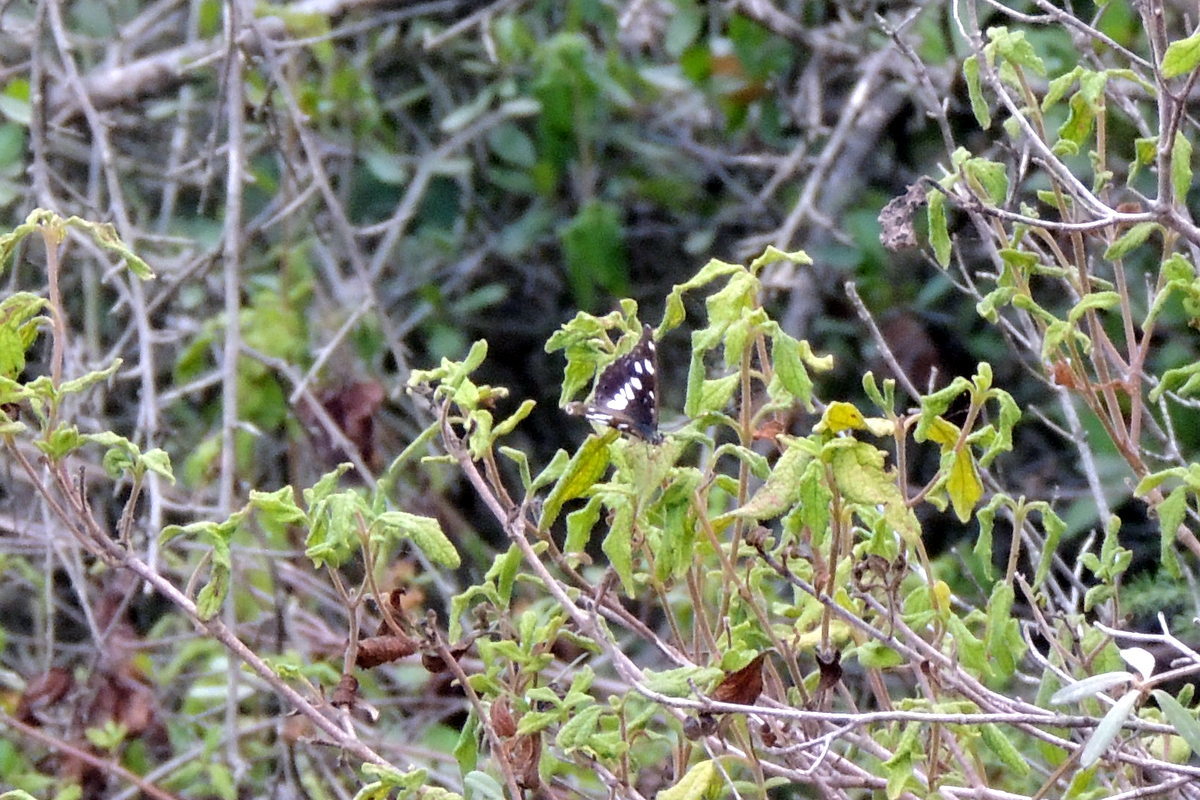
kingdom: Animalia
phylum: Arthropoda
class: Insecta
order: Lepidoptera
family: Nymphalidae
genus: Limenitis
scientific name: Limenitis reducta
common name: Southern white admiral
